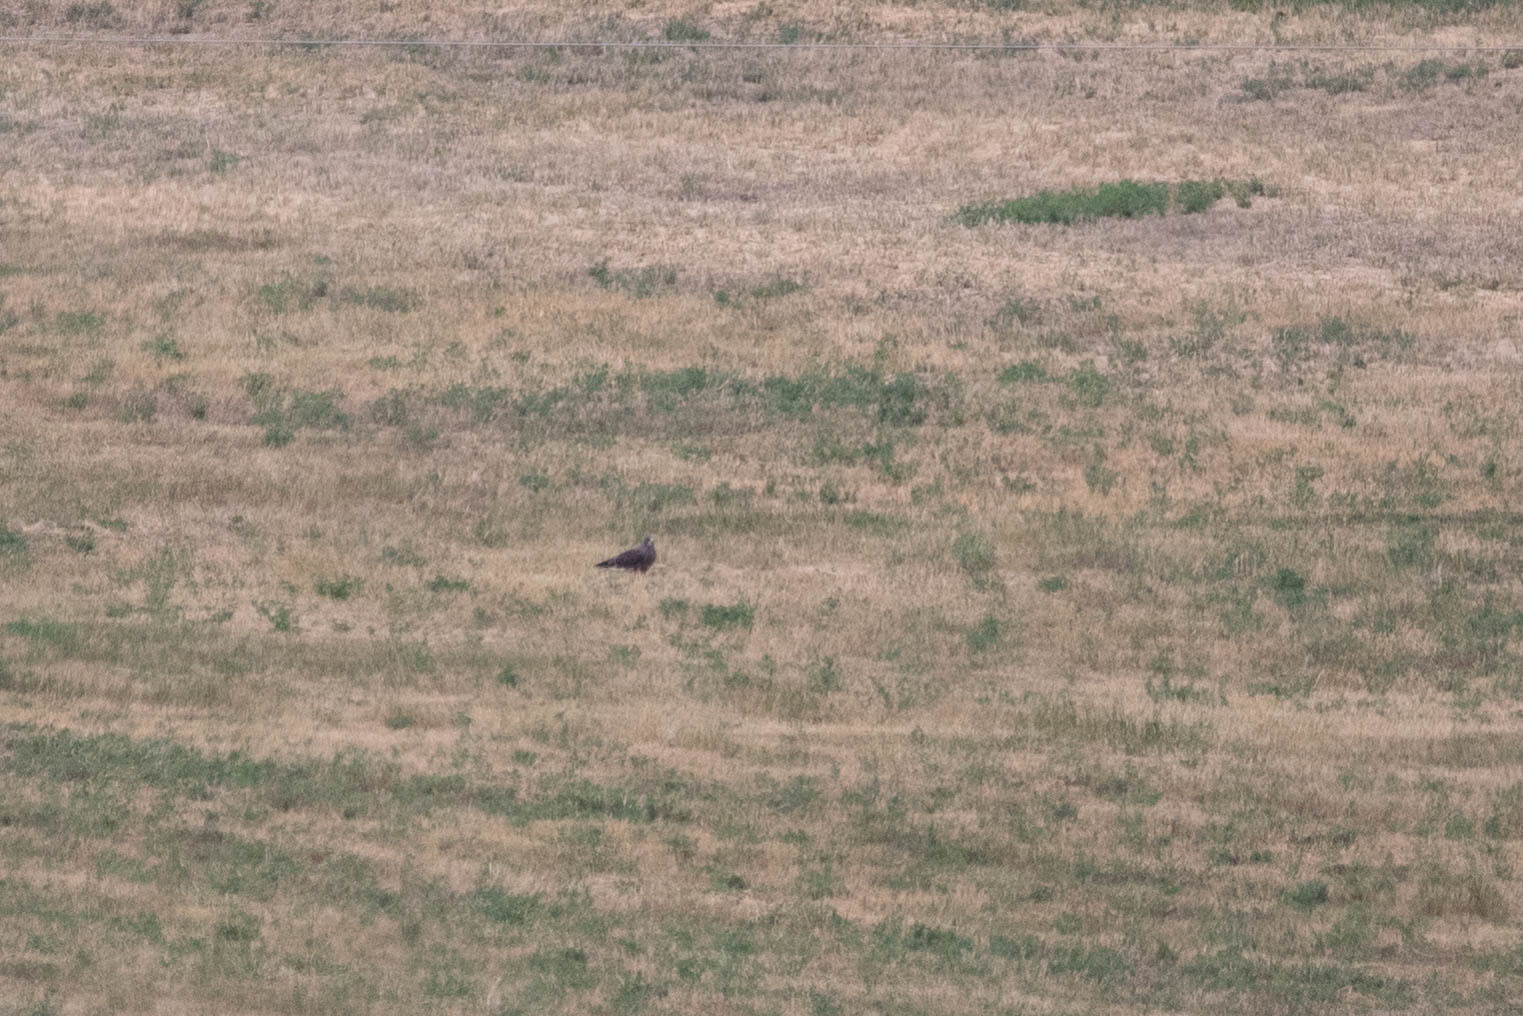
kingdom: Animalia
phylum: Chordata
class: Aves
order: Accipitriformes
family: Accipitridae
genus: Buteo
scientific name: Buteo swainsoni
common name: Swainson's hawk
